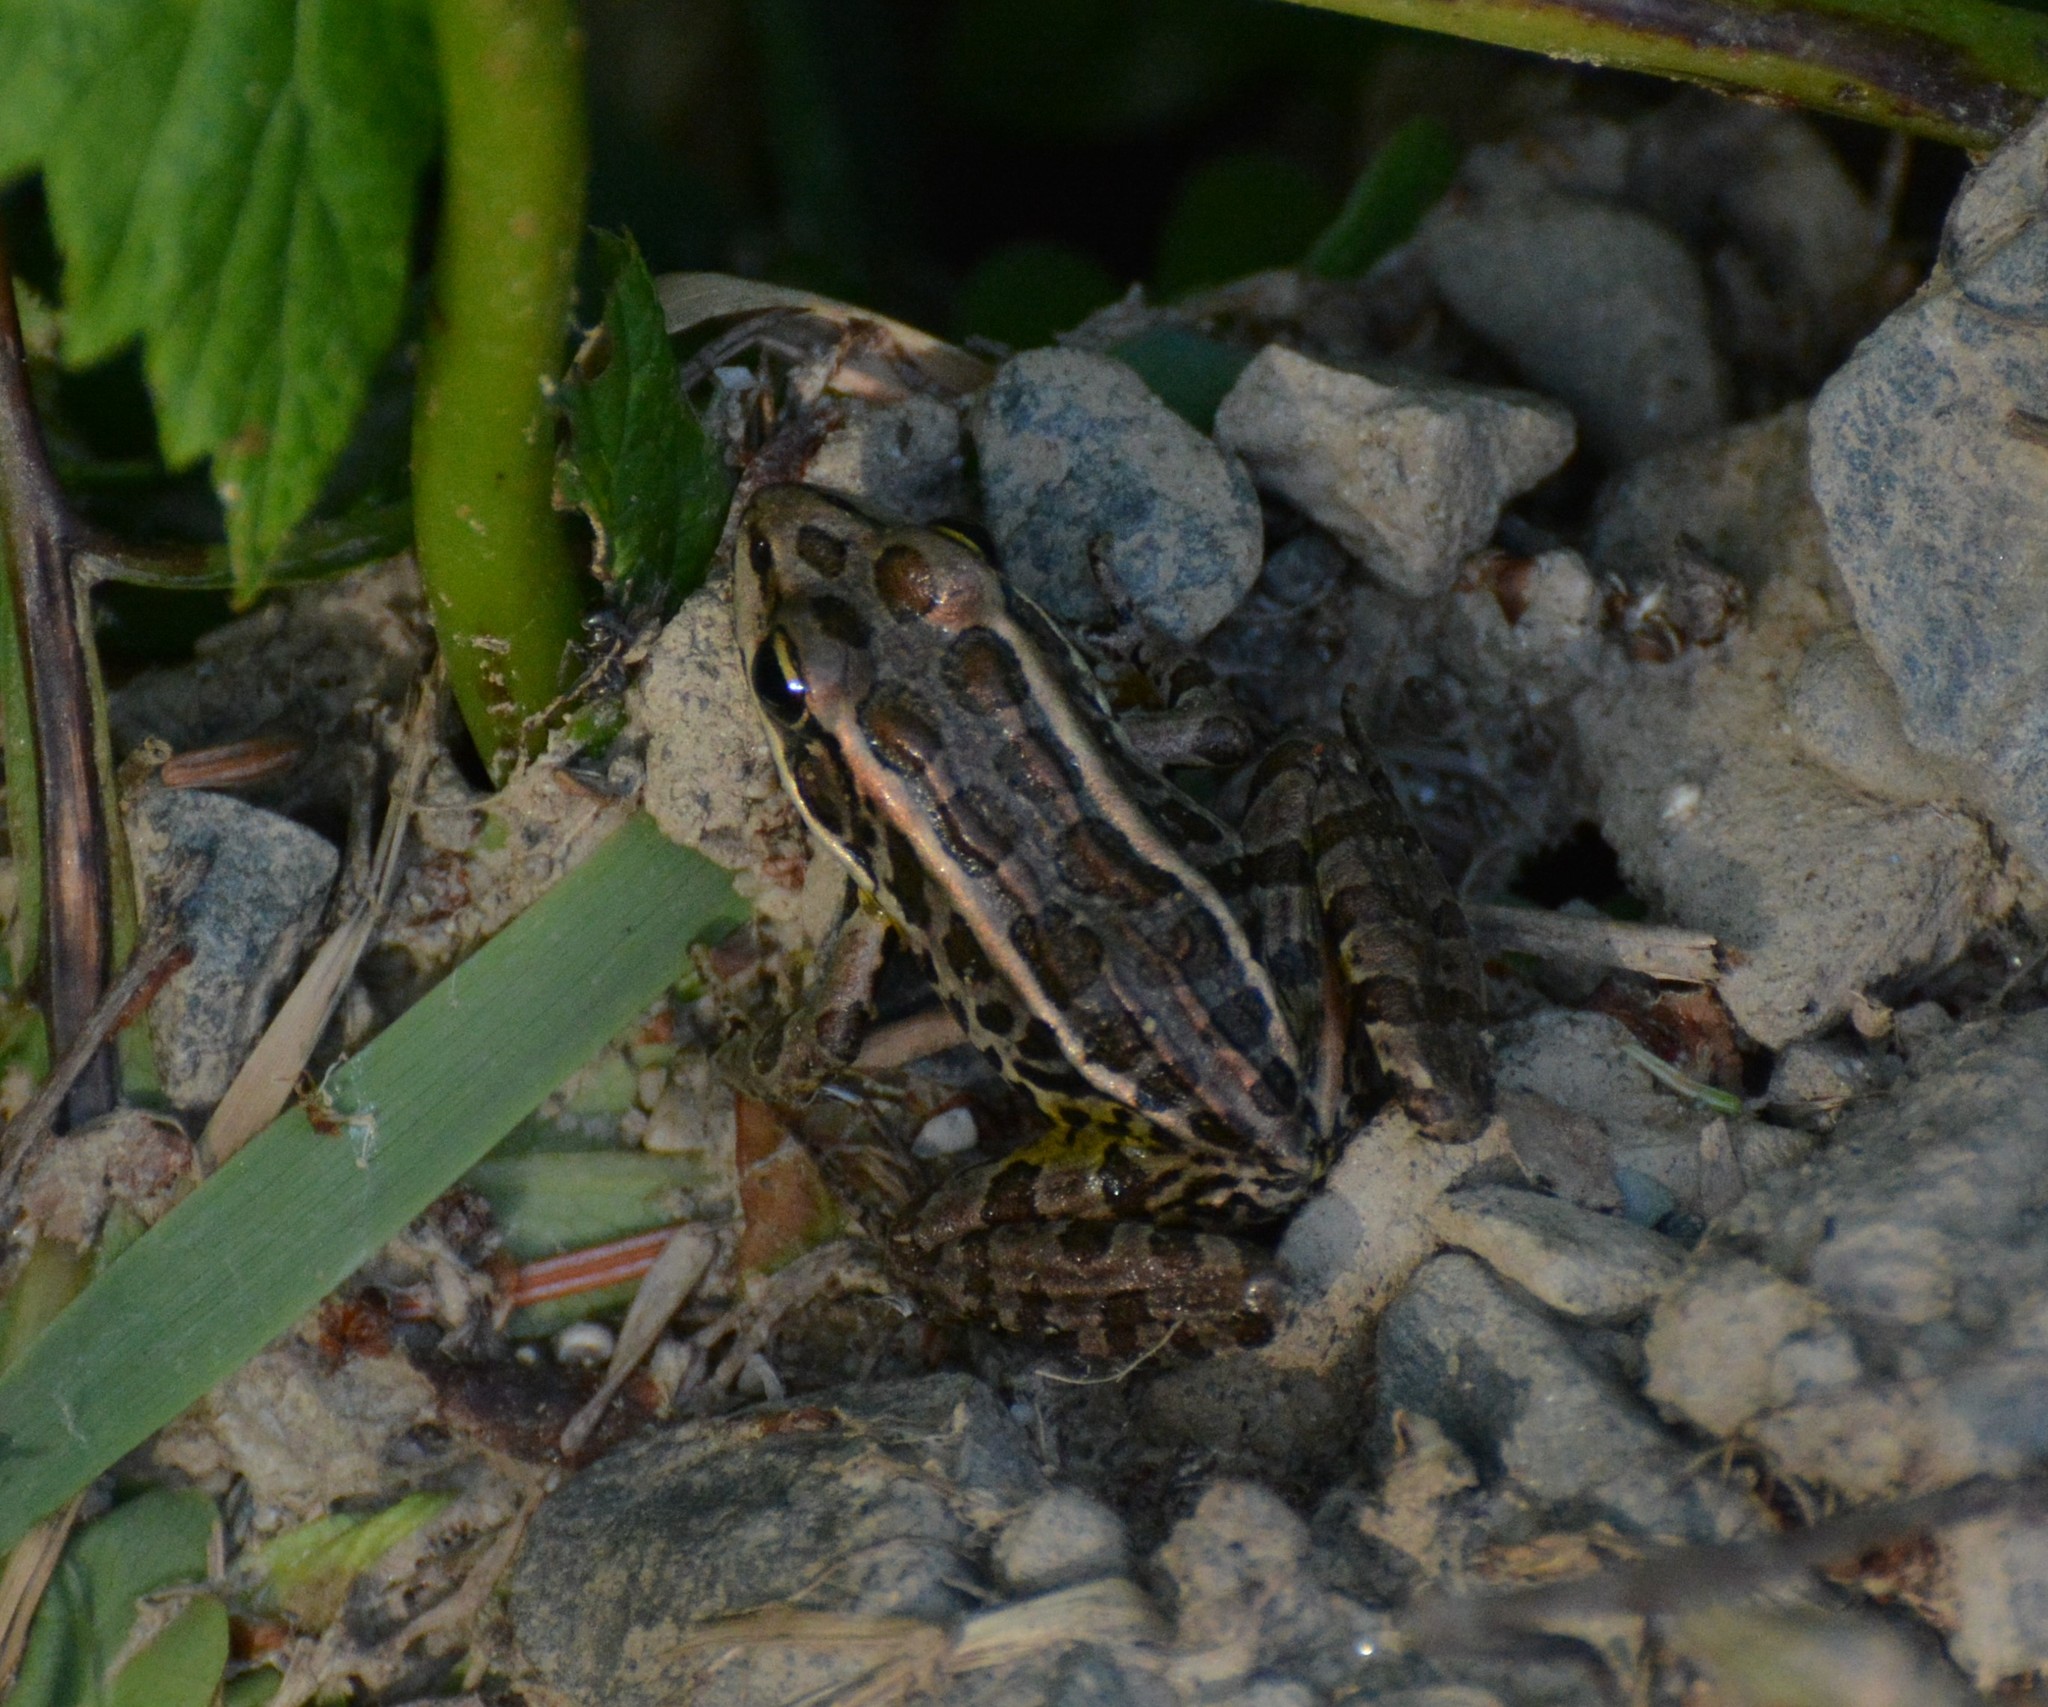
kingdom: Animalia
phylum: Chordata
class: Amphibia
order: Anura
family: Ranidae
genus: Lithobates
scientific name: Lithobates palustris
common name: Pickerel frog
